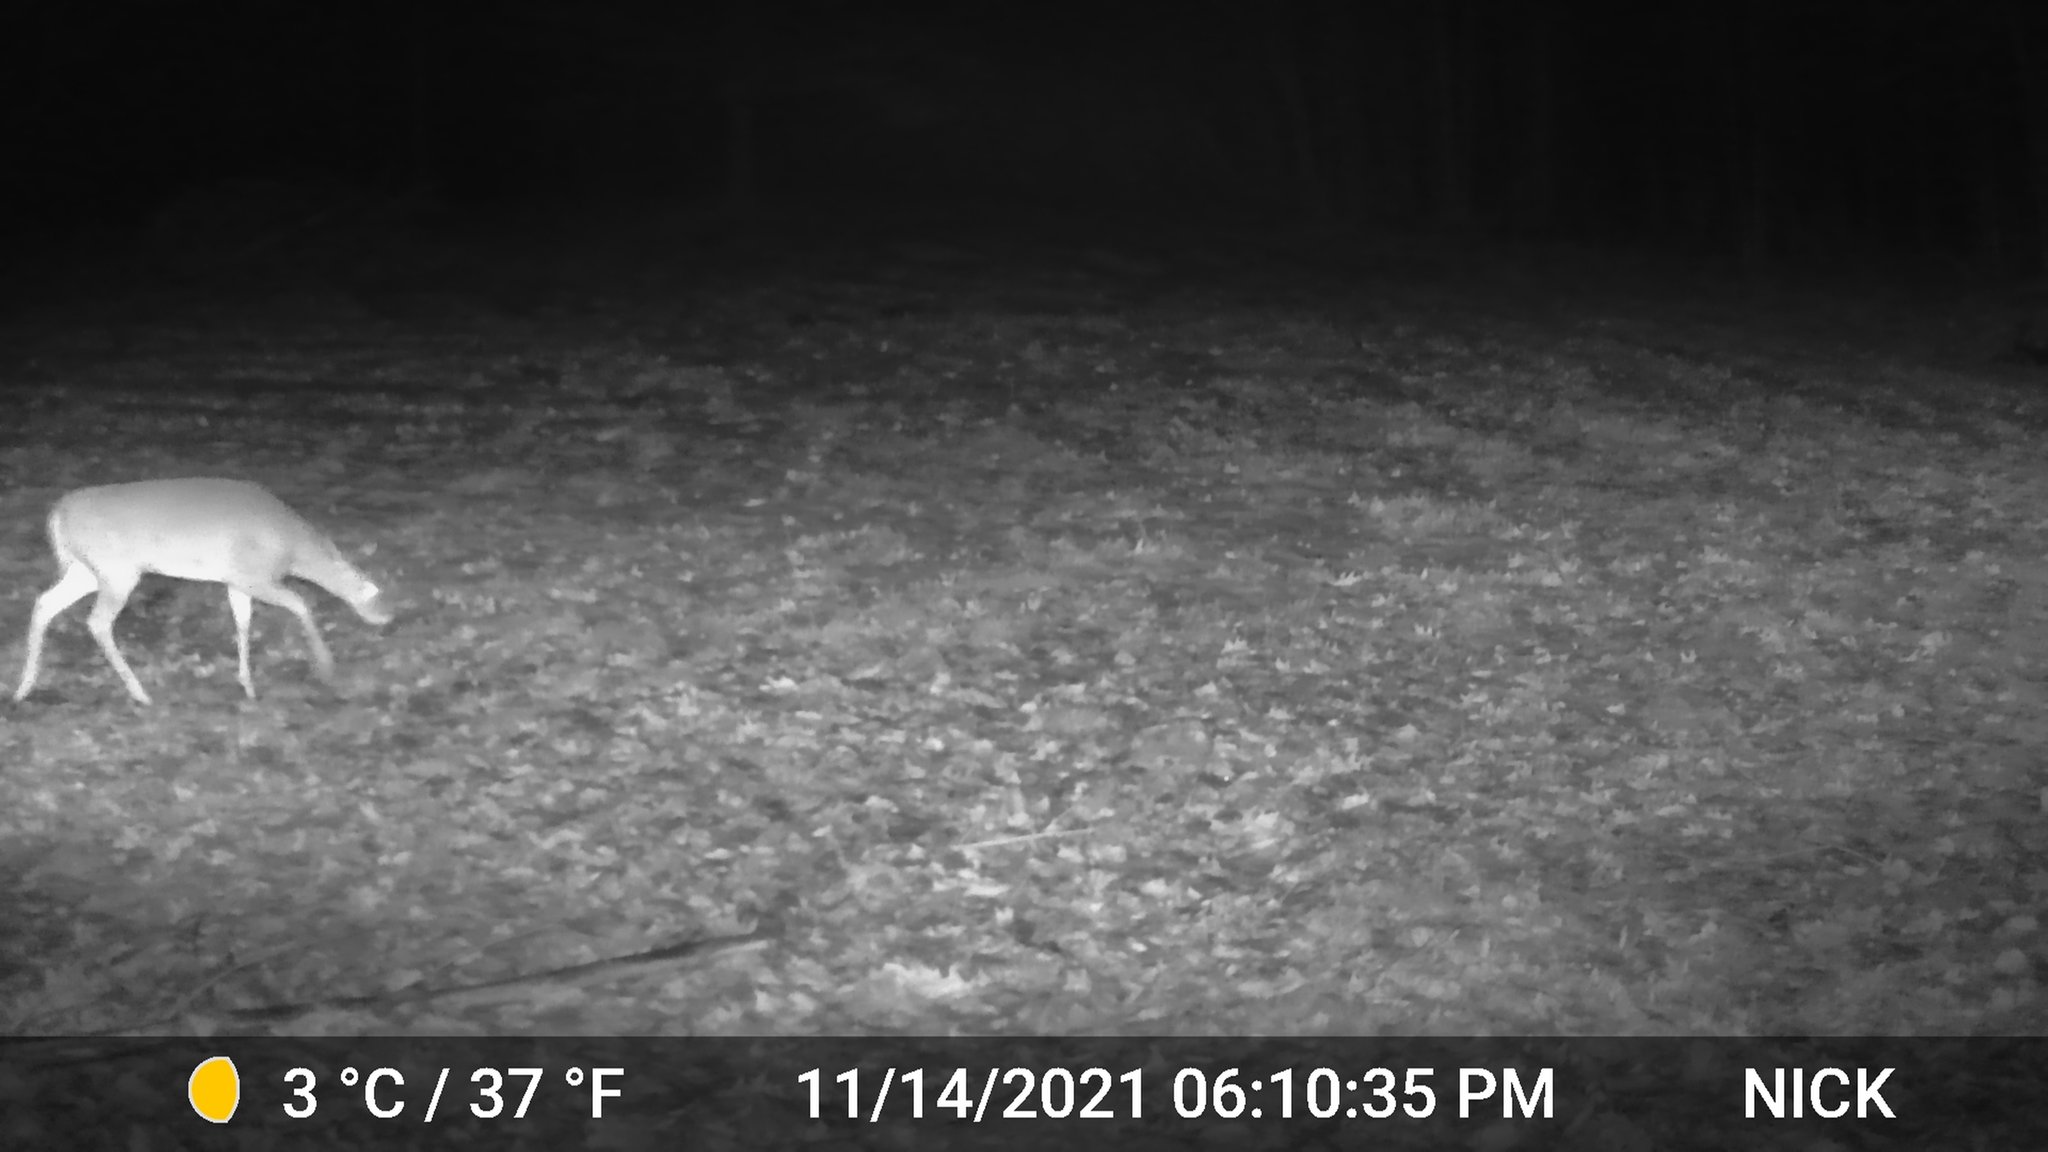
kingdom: Animalia
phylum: Chordata
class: Mammalia
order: Artiodactyla
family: Cervidae
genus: Odocoileus
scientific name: Odocoileus virginianus
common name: White-tailed deer
